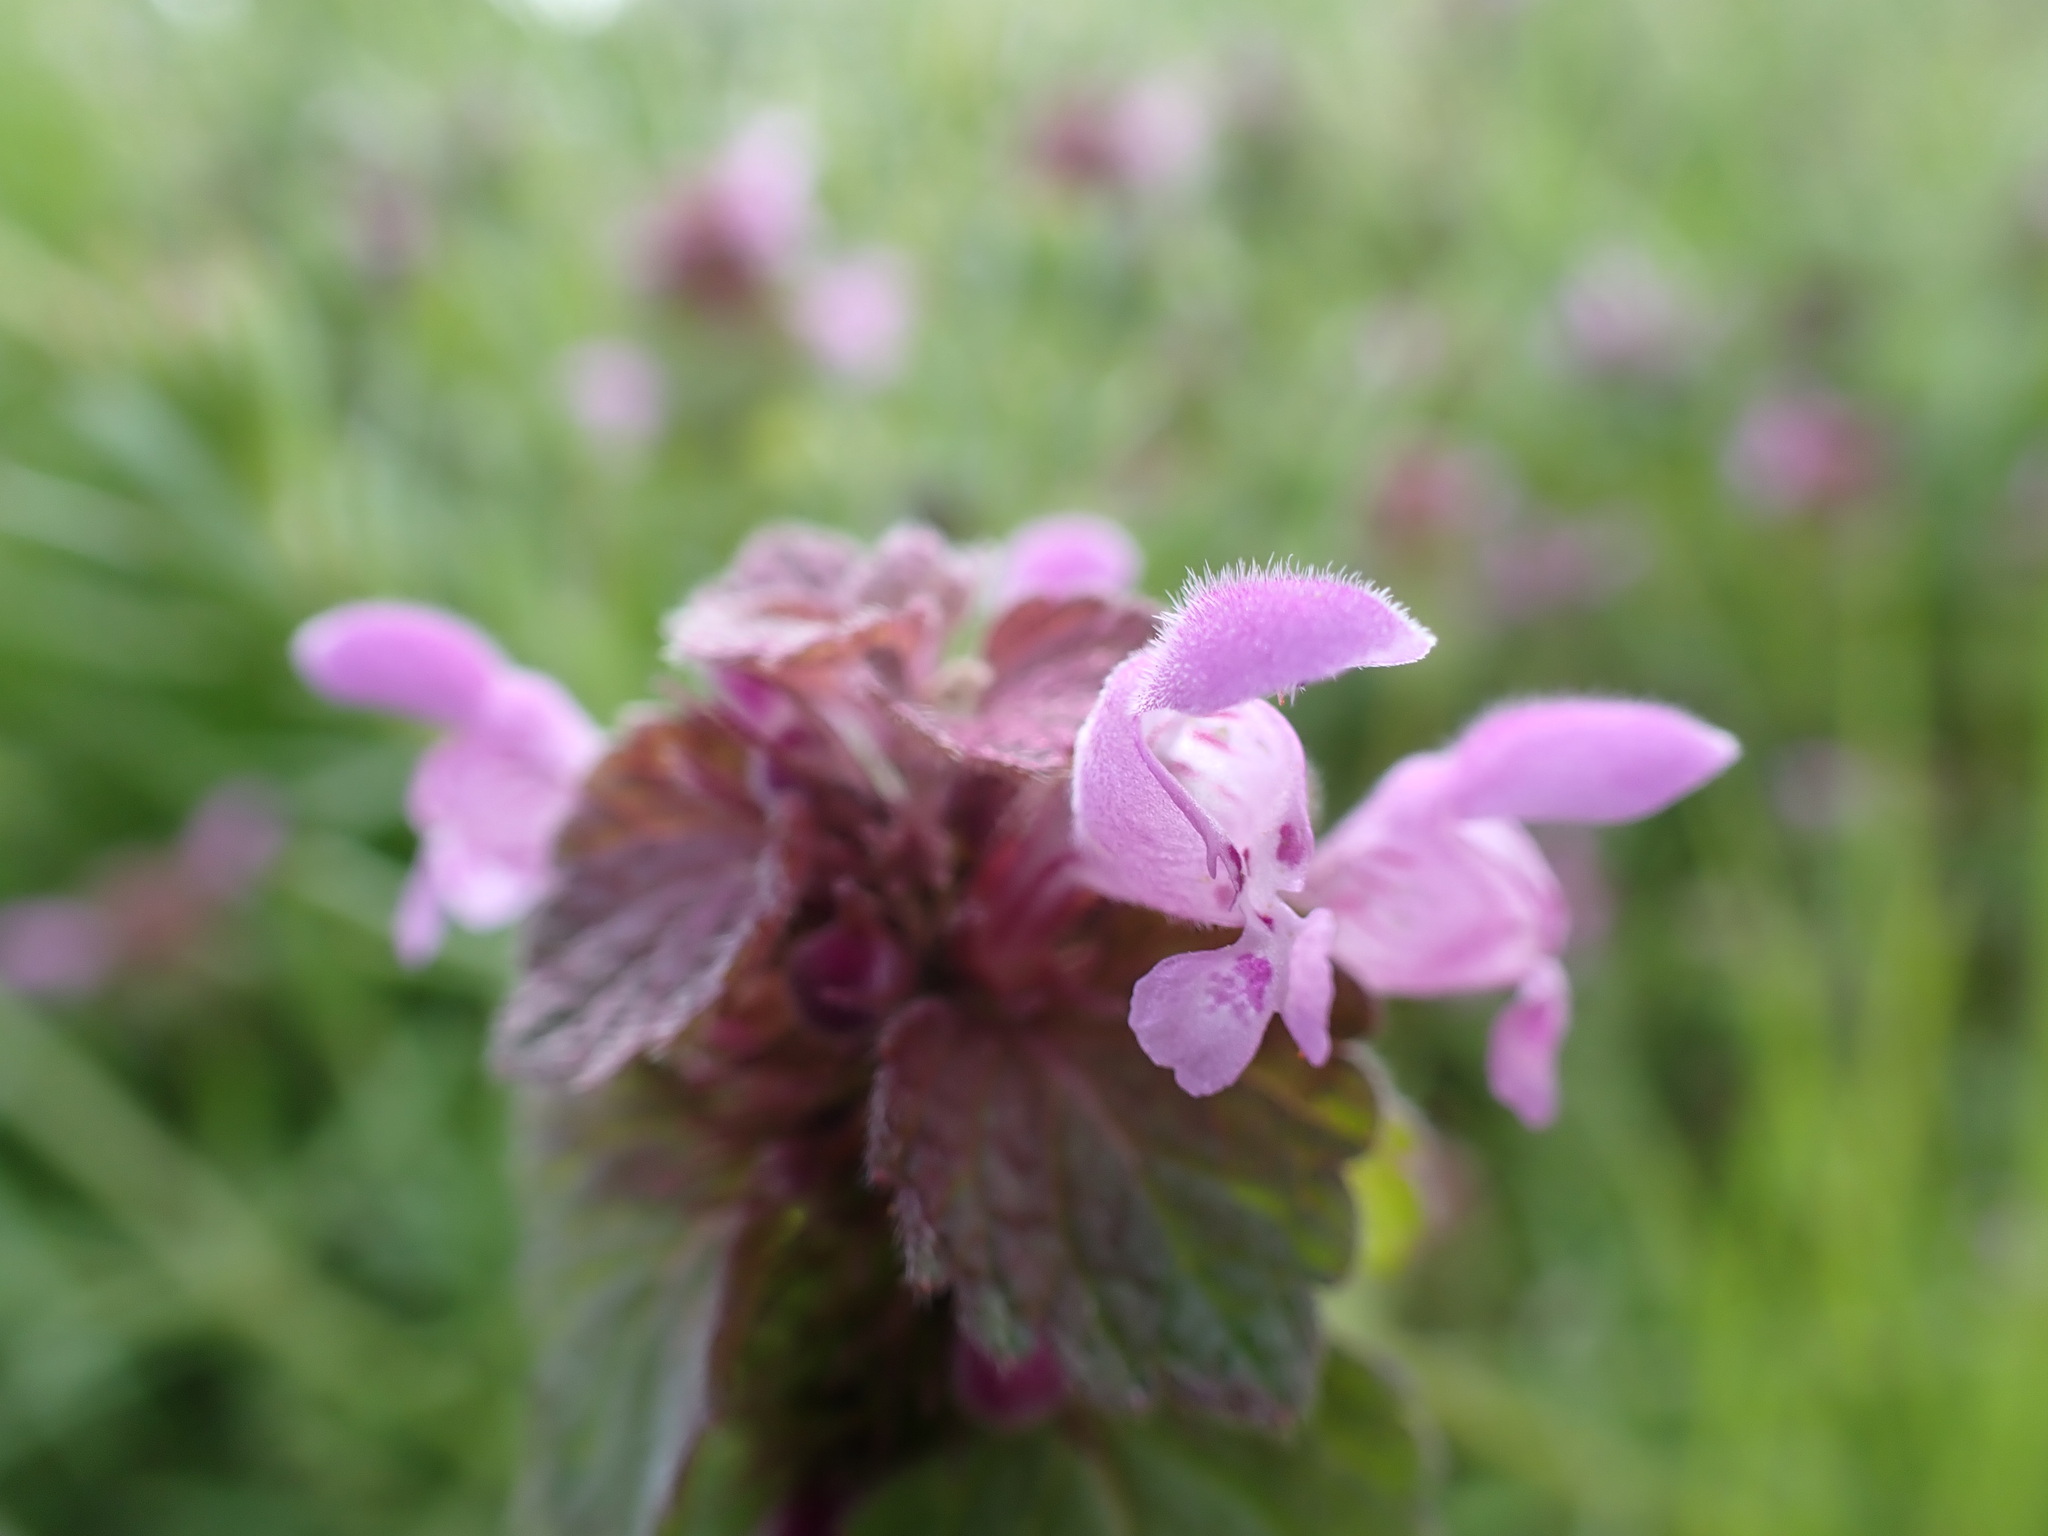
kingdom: Plantae
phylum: Tracheophyta
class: Magnoliopsida
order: Lamiales
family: Lamiaceae
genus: Lamium
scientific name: Lamium purpureum
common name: Red dead-nettle
